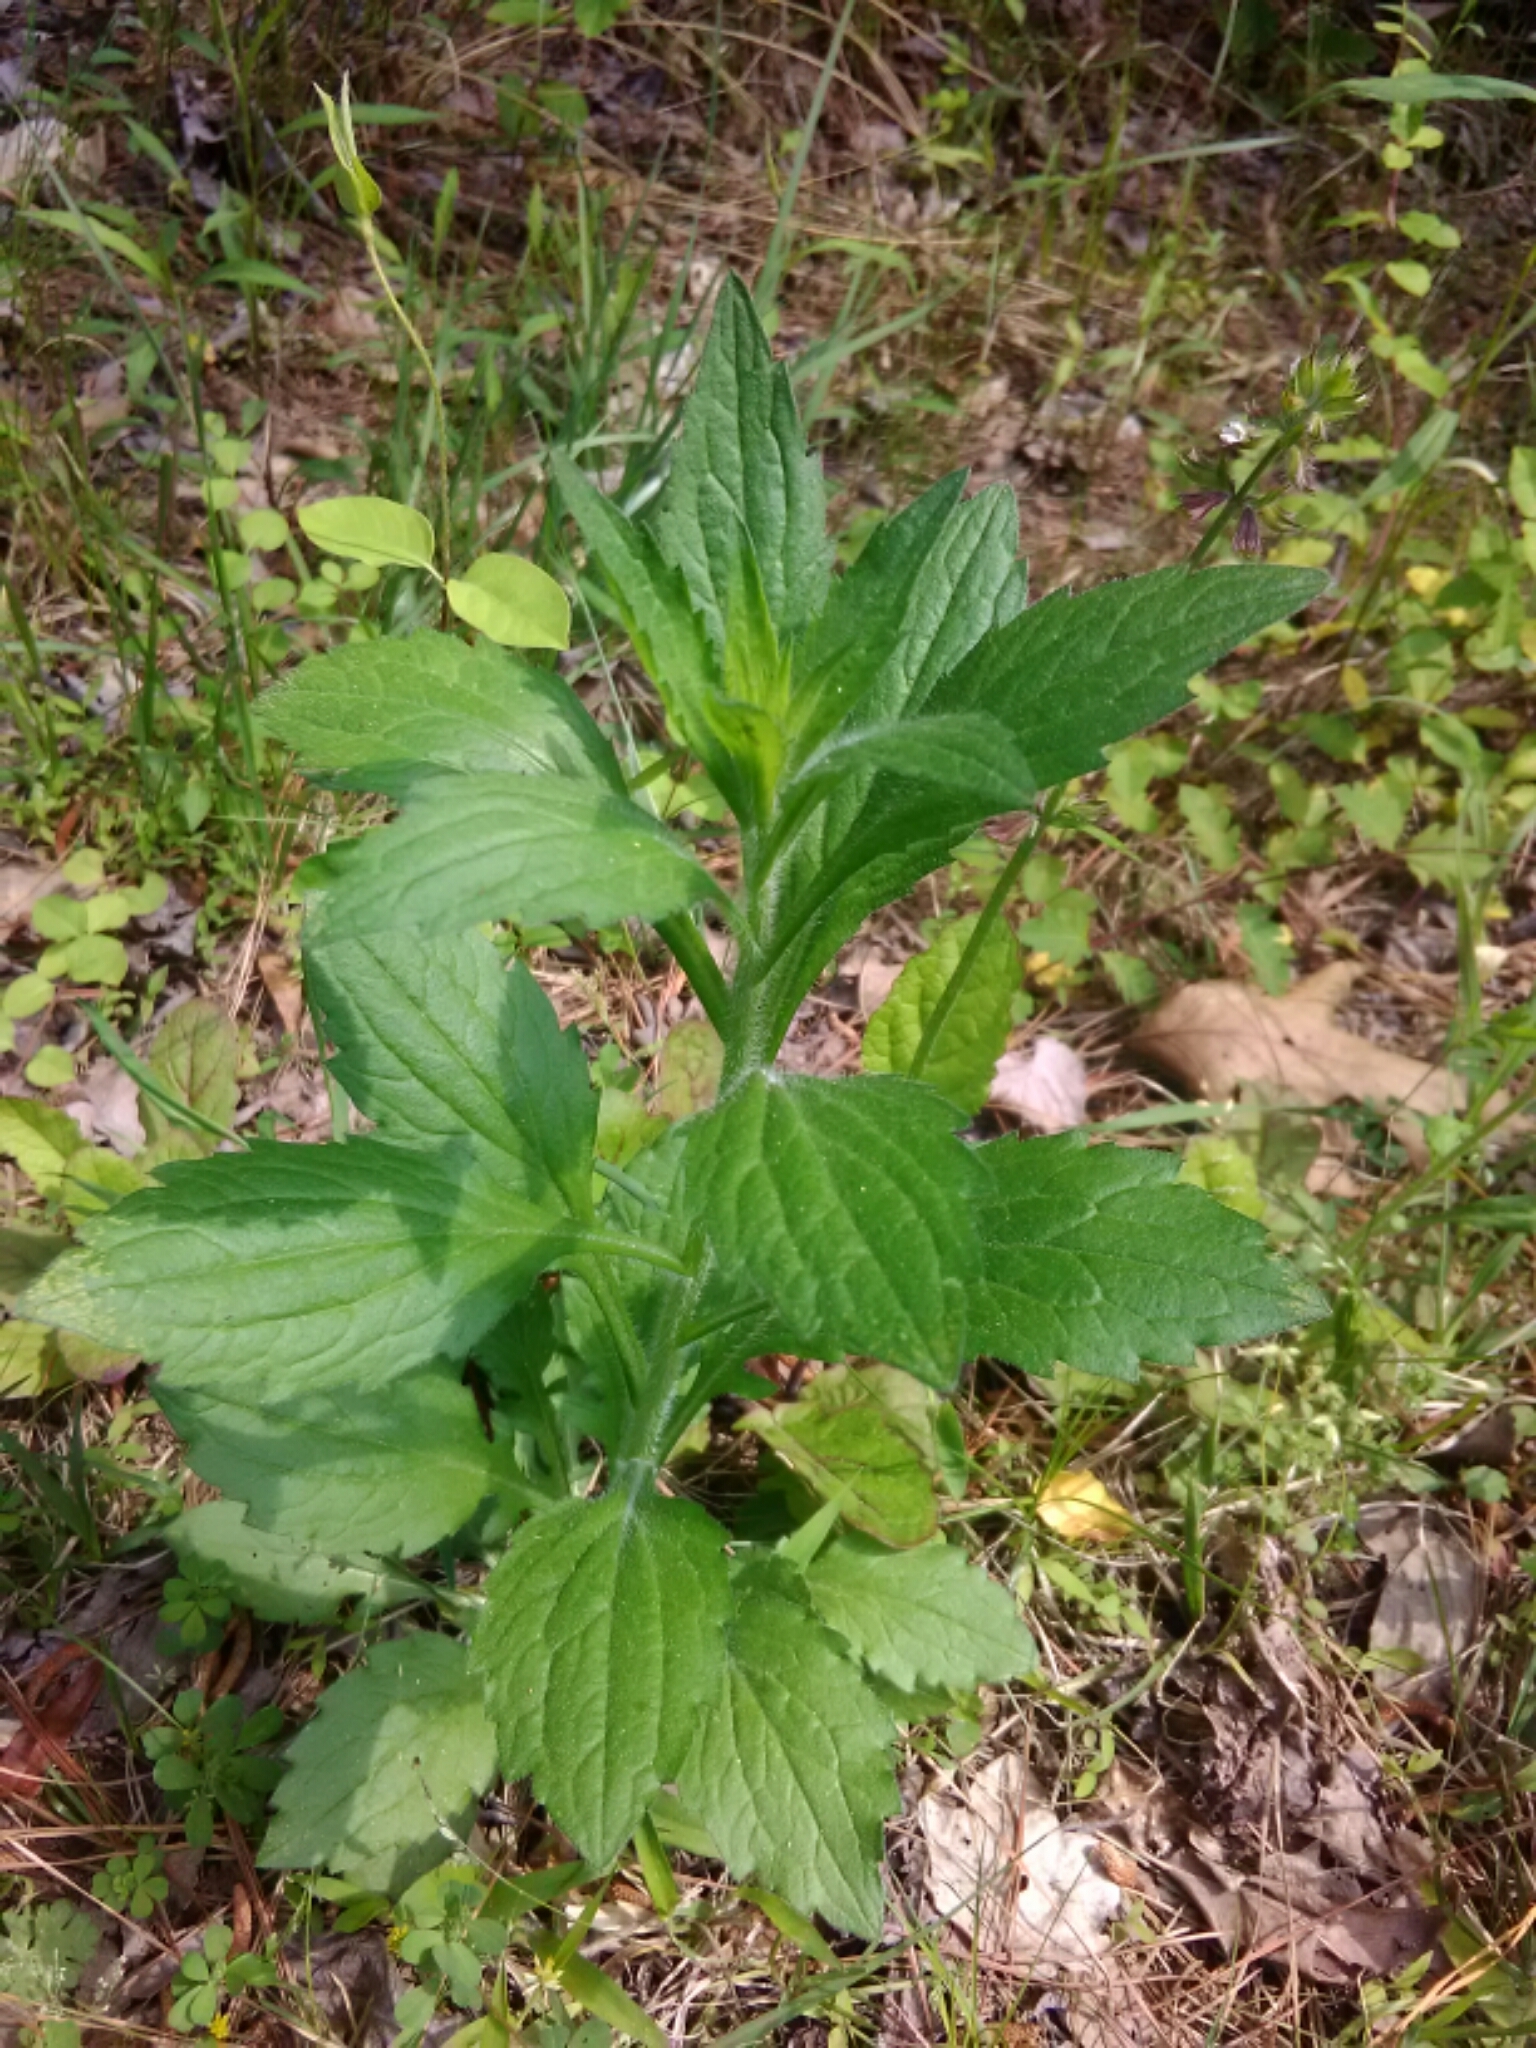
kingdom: Plantae
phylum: Tracheophyta
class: Magnoliopsida
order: Asterales
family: Asteraceae
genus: Erigeron
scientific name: Erigeron canadensis
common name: Canadian fleabane
